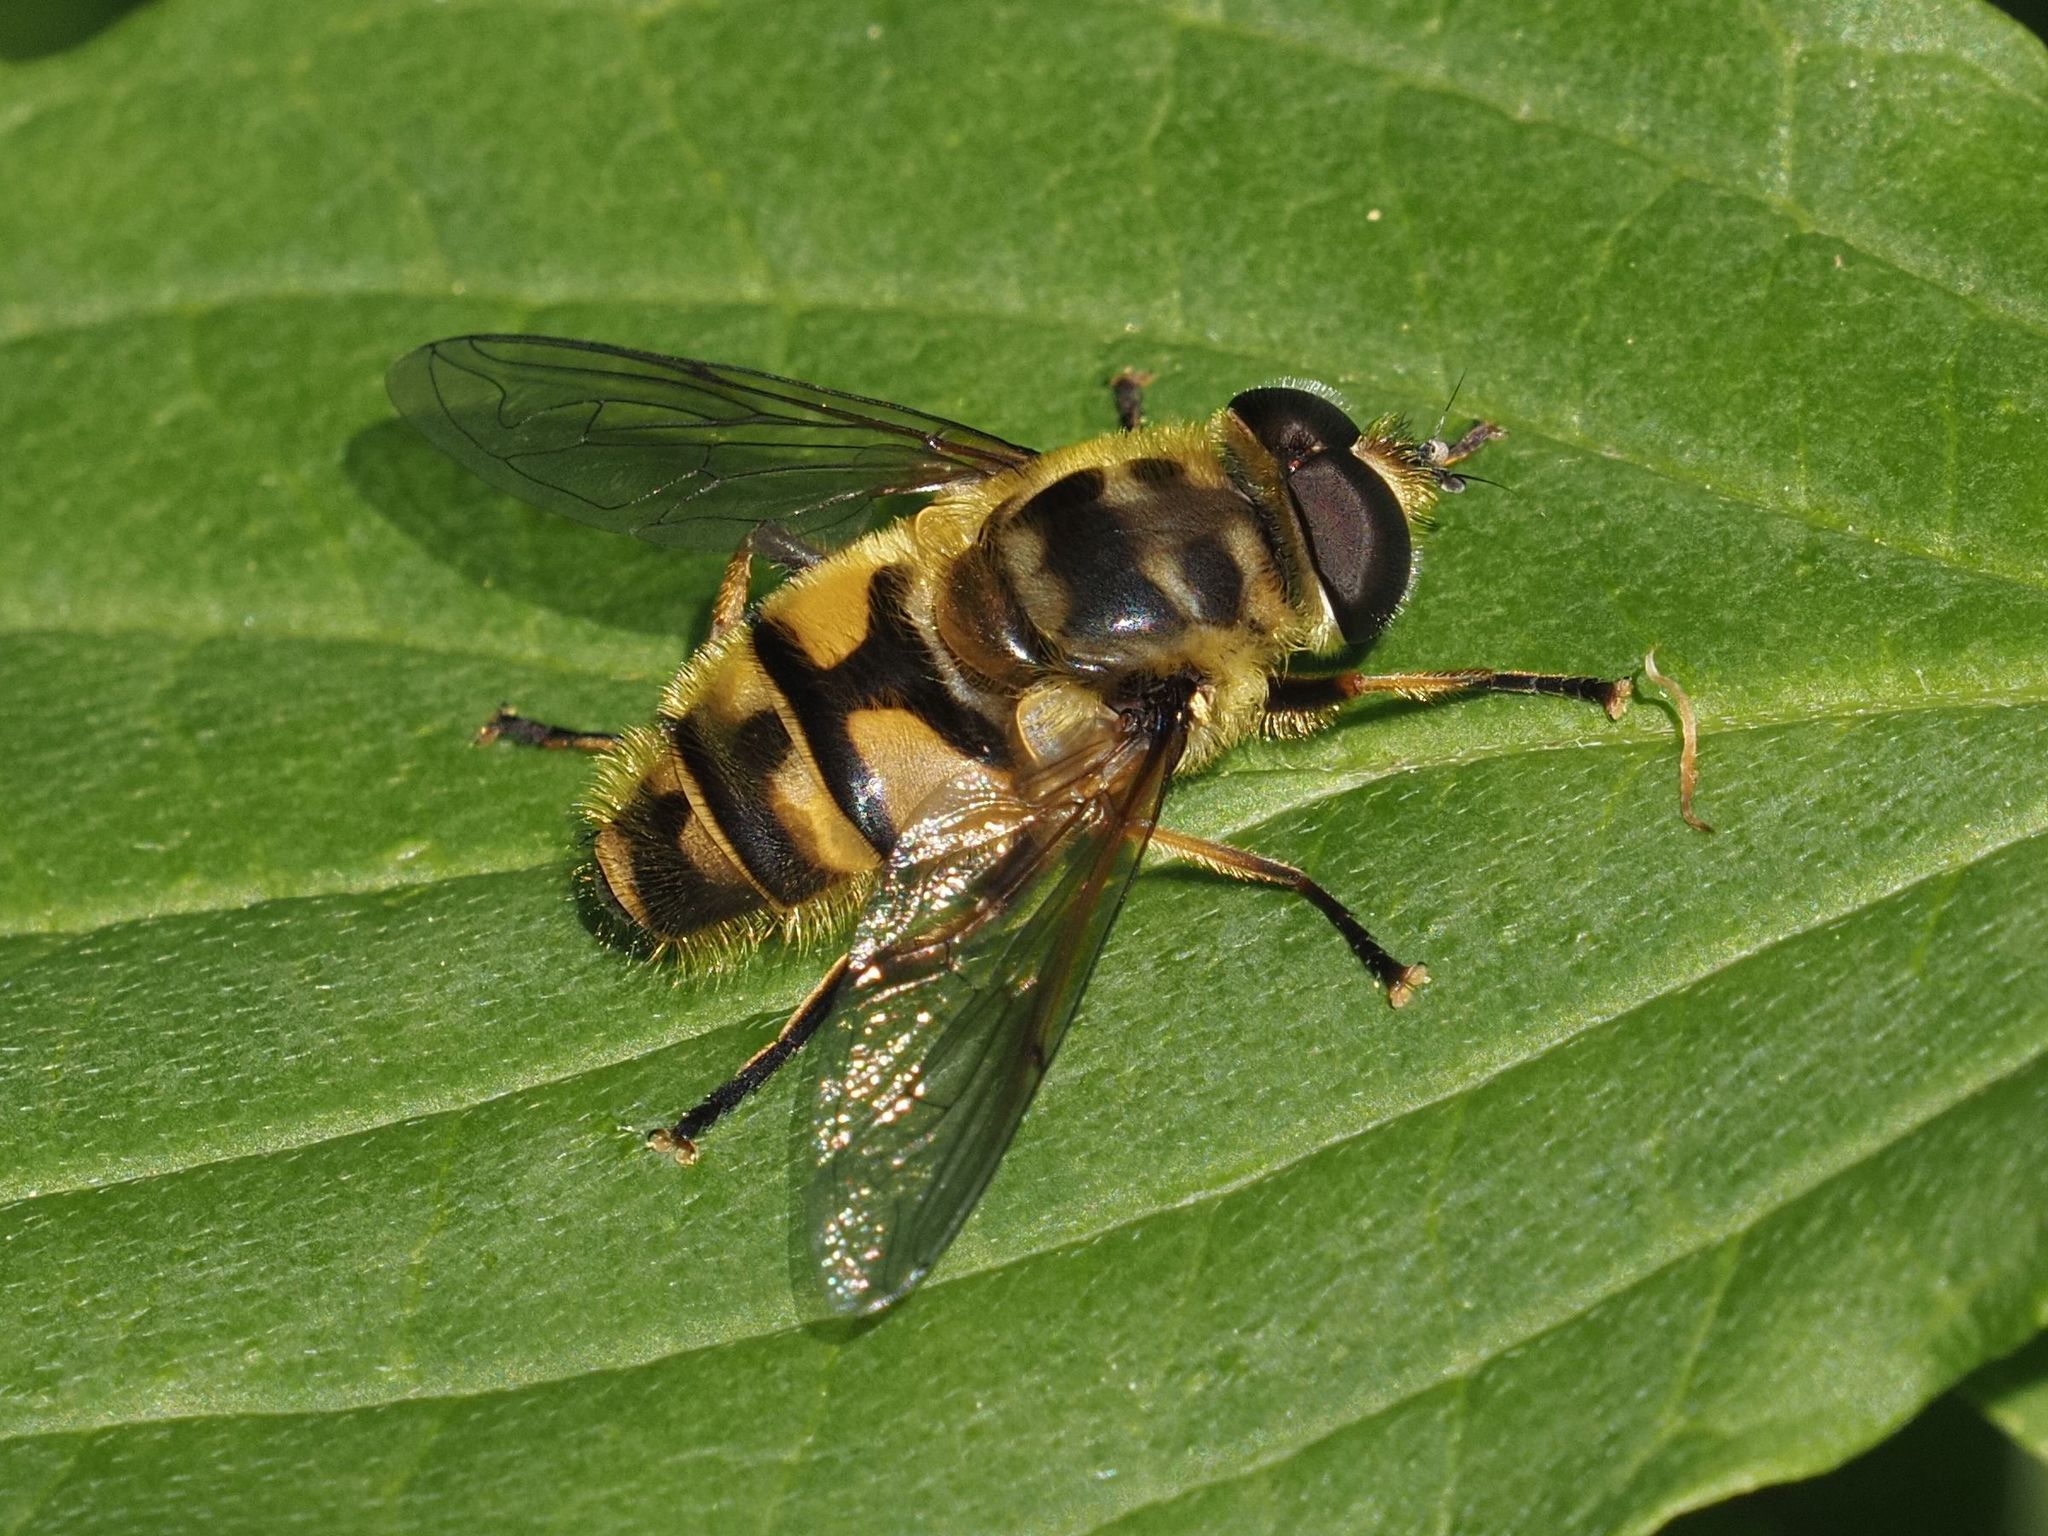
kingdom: Animalia
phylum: Arthropoda
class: Insecta
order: Diptera
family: Syrphidae
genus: Myathropa
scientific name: Myathropa florea
